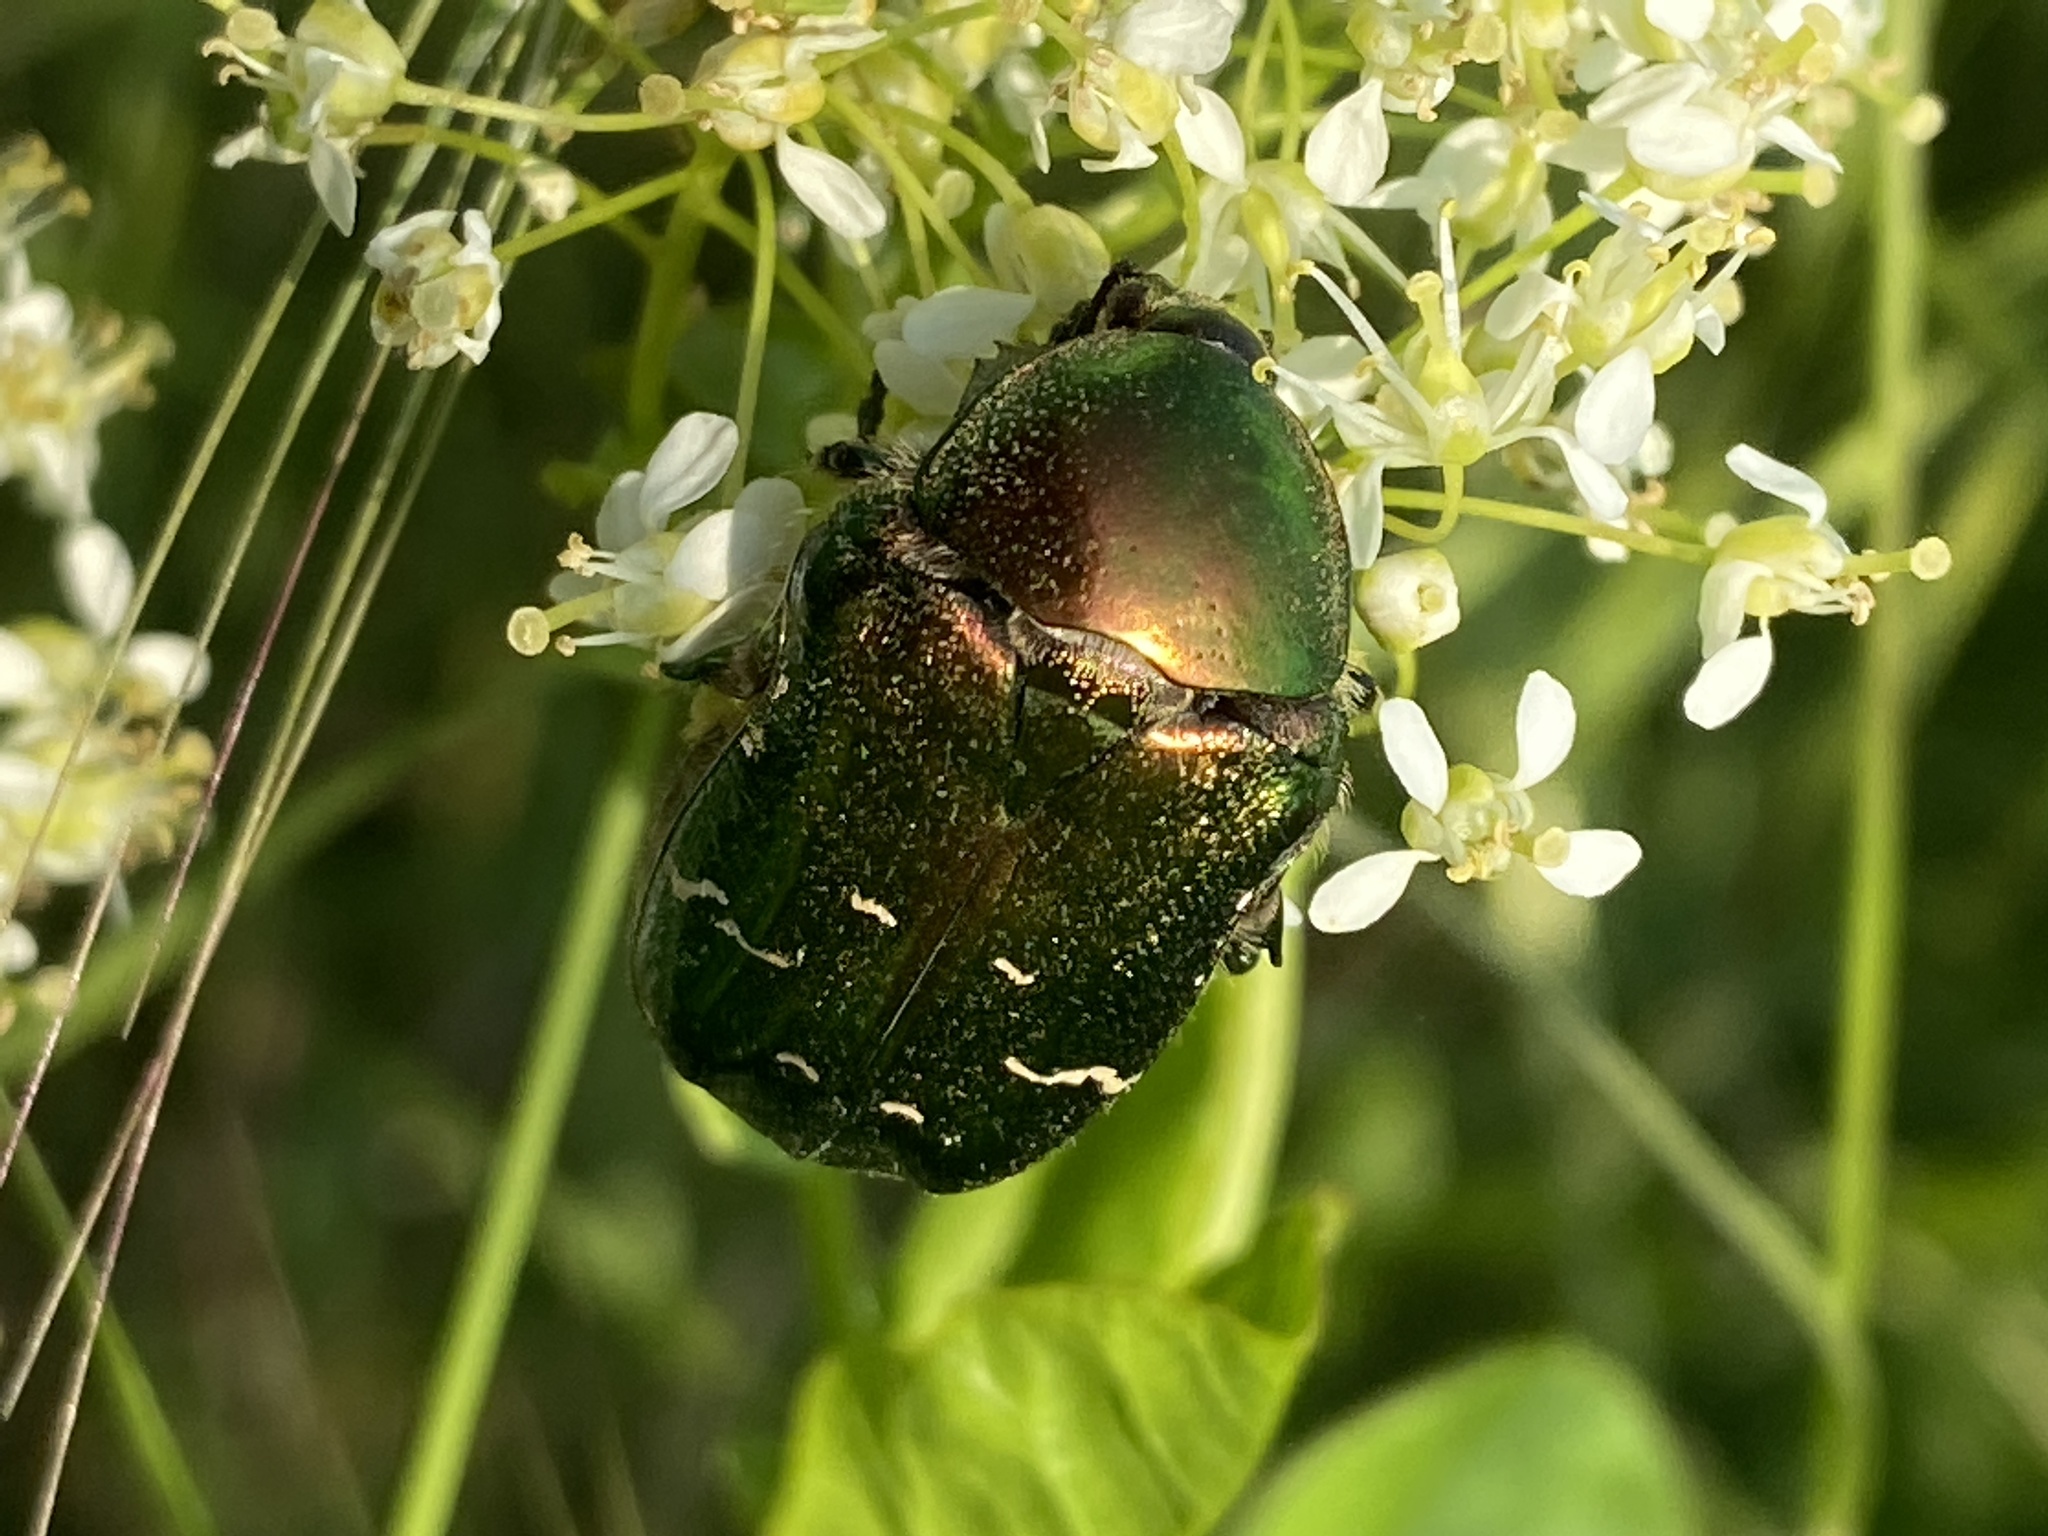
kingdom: Animalia
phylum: Arthropoda
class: Insecta
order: Coleoptera
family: Scarabaeidae
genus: Cetonia
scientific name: Cetonia aurata
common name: Rose chafer
